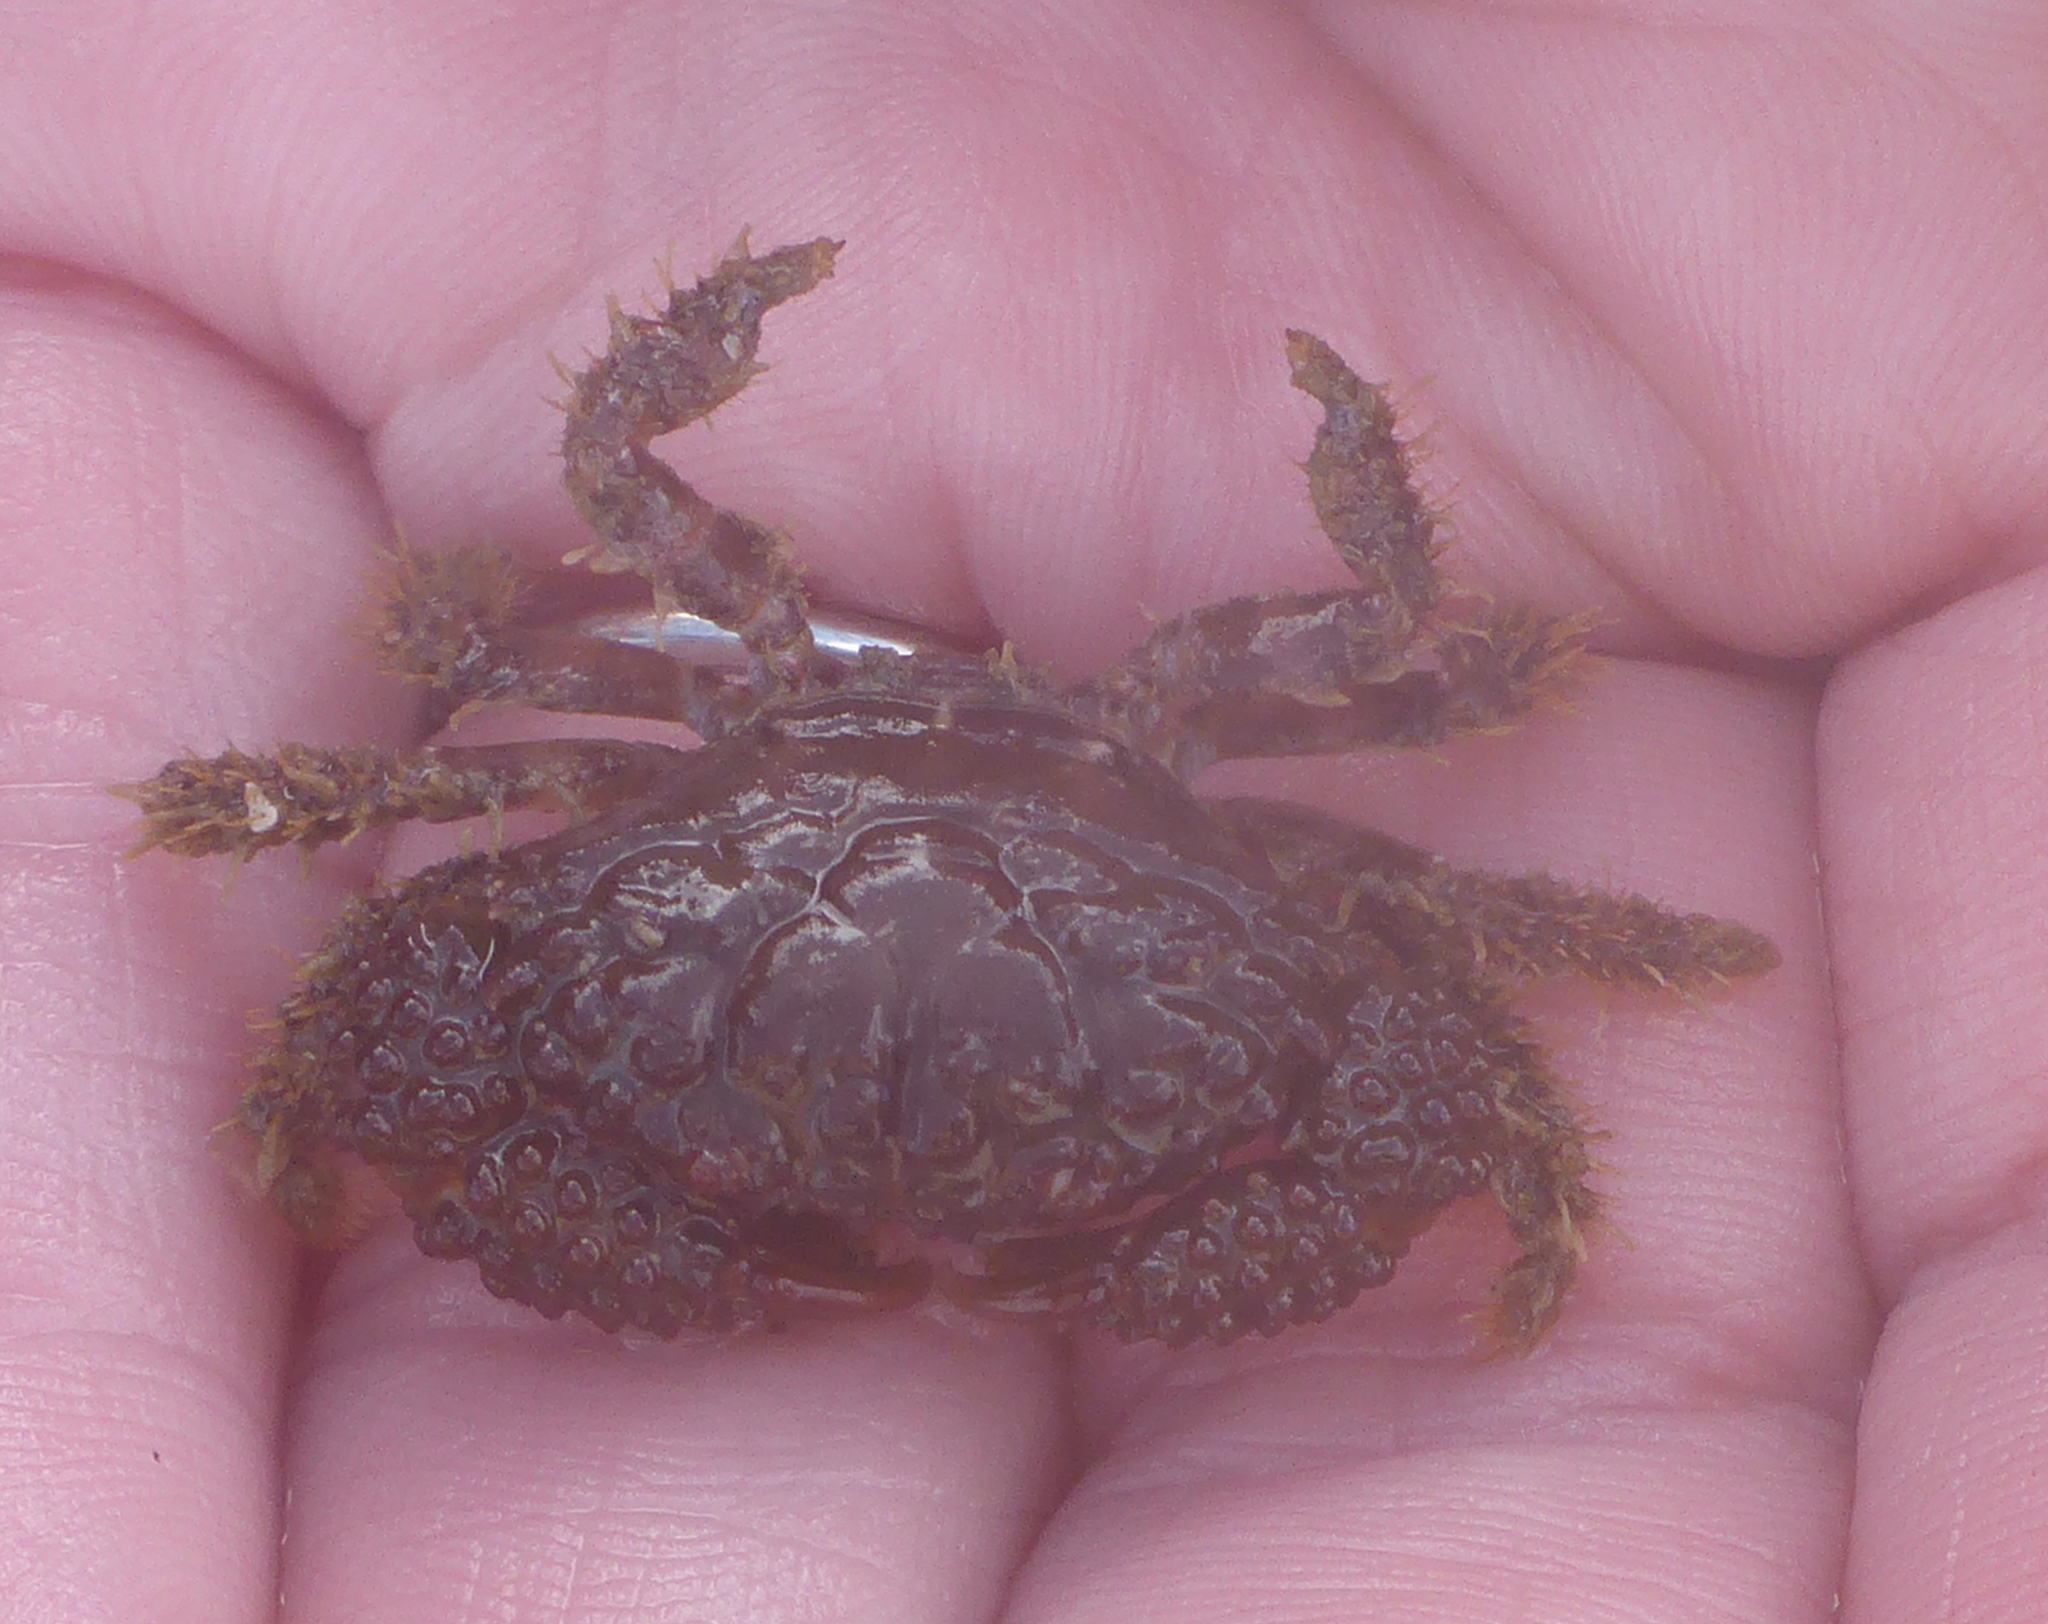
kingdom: Animalia
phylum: Arthropoda
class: Malacostraca
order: Decapoda
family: Xanthidae
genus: Paraxanthias
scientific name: Paraxanthias taylori
